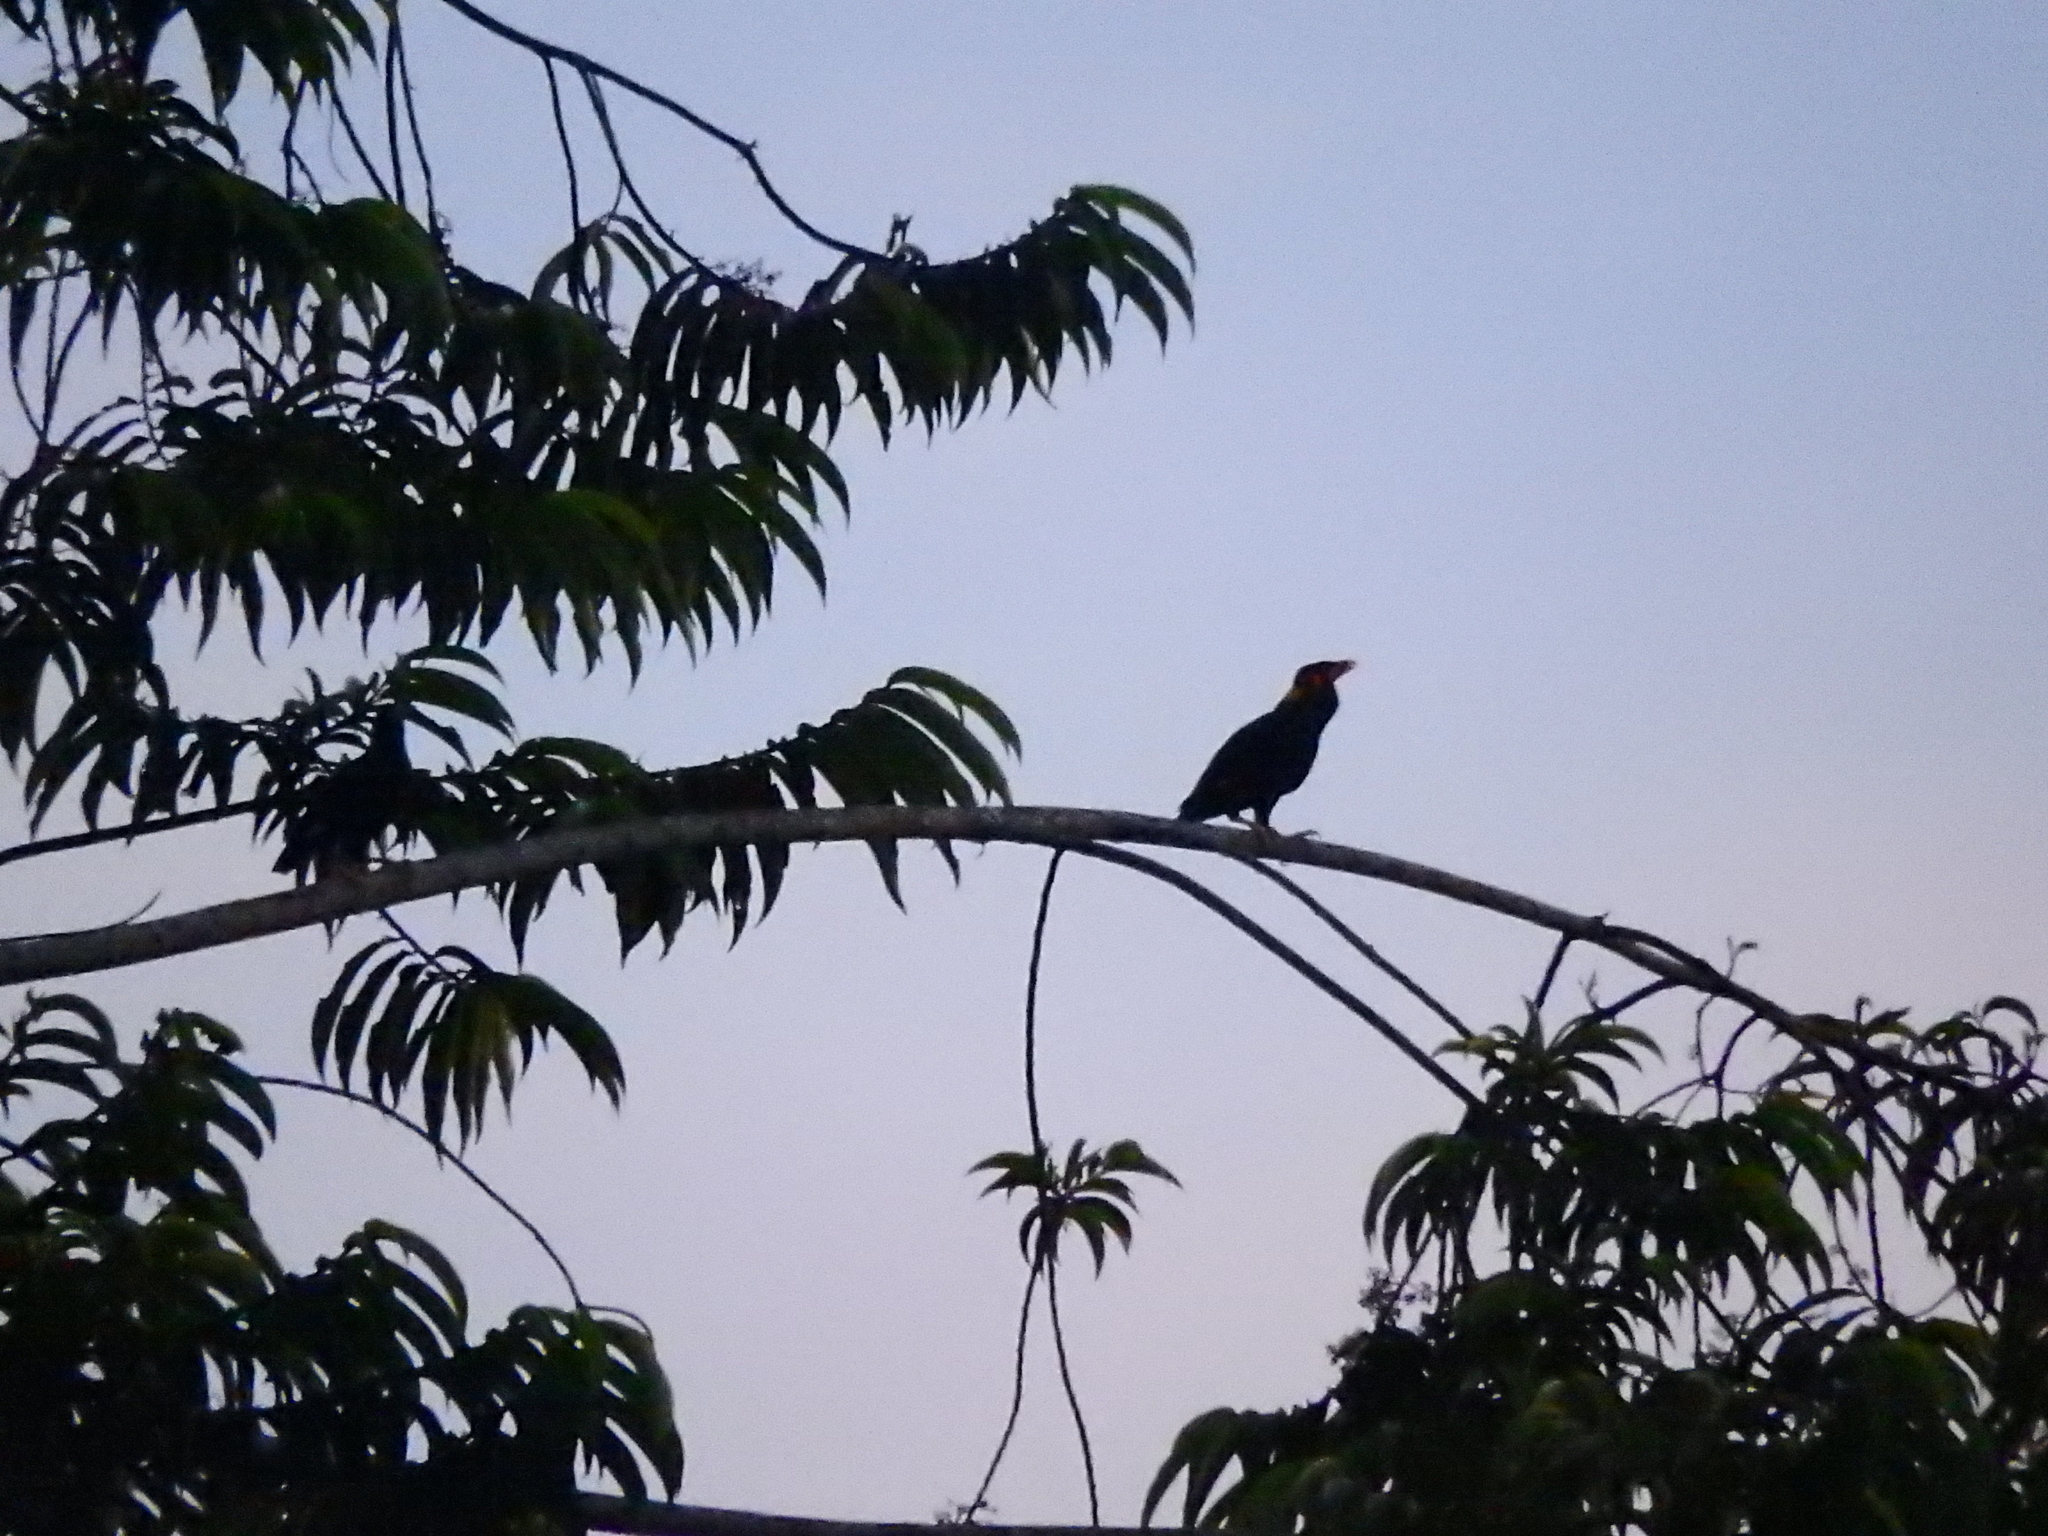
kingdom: Animalia
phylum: Chordata
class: Aves
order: Passeriformes
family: Sturnidae
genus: Gracula
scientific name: Gracula religiosa
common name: Common hill myna
